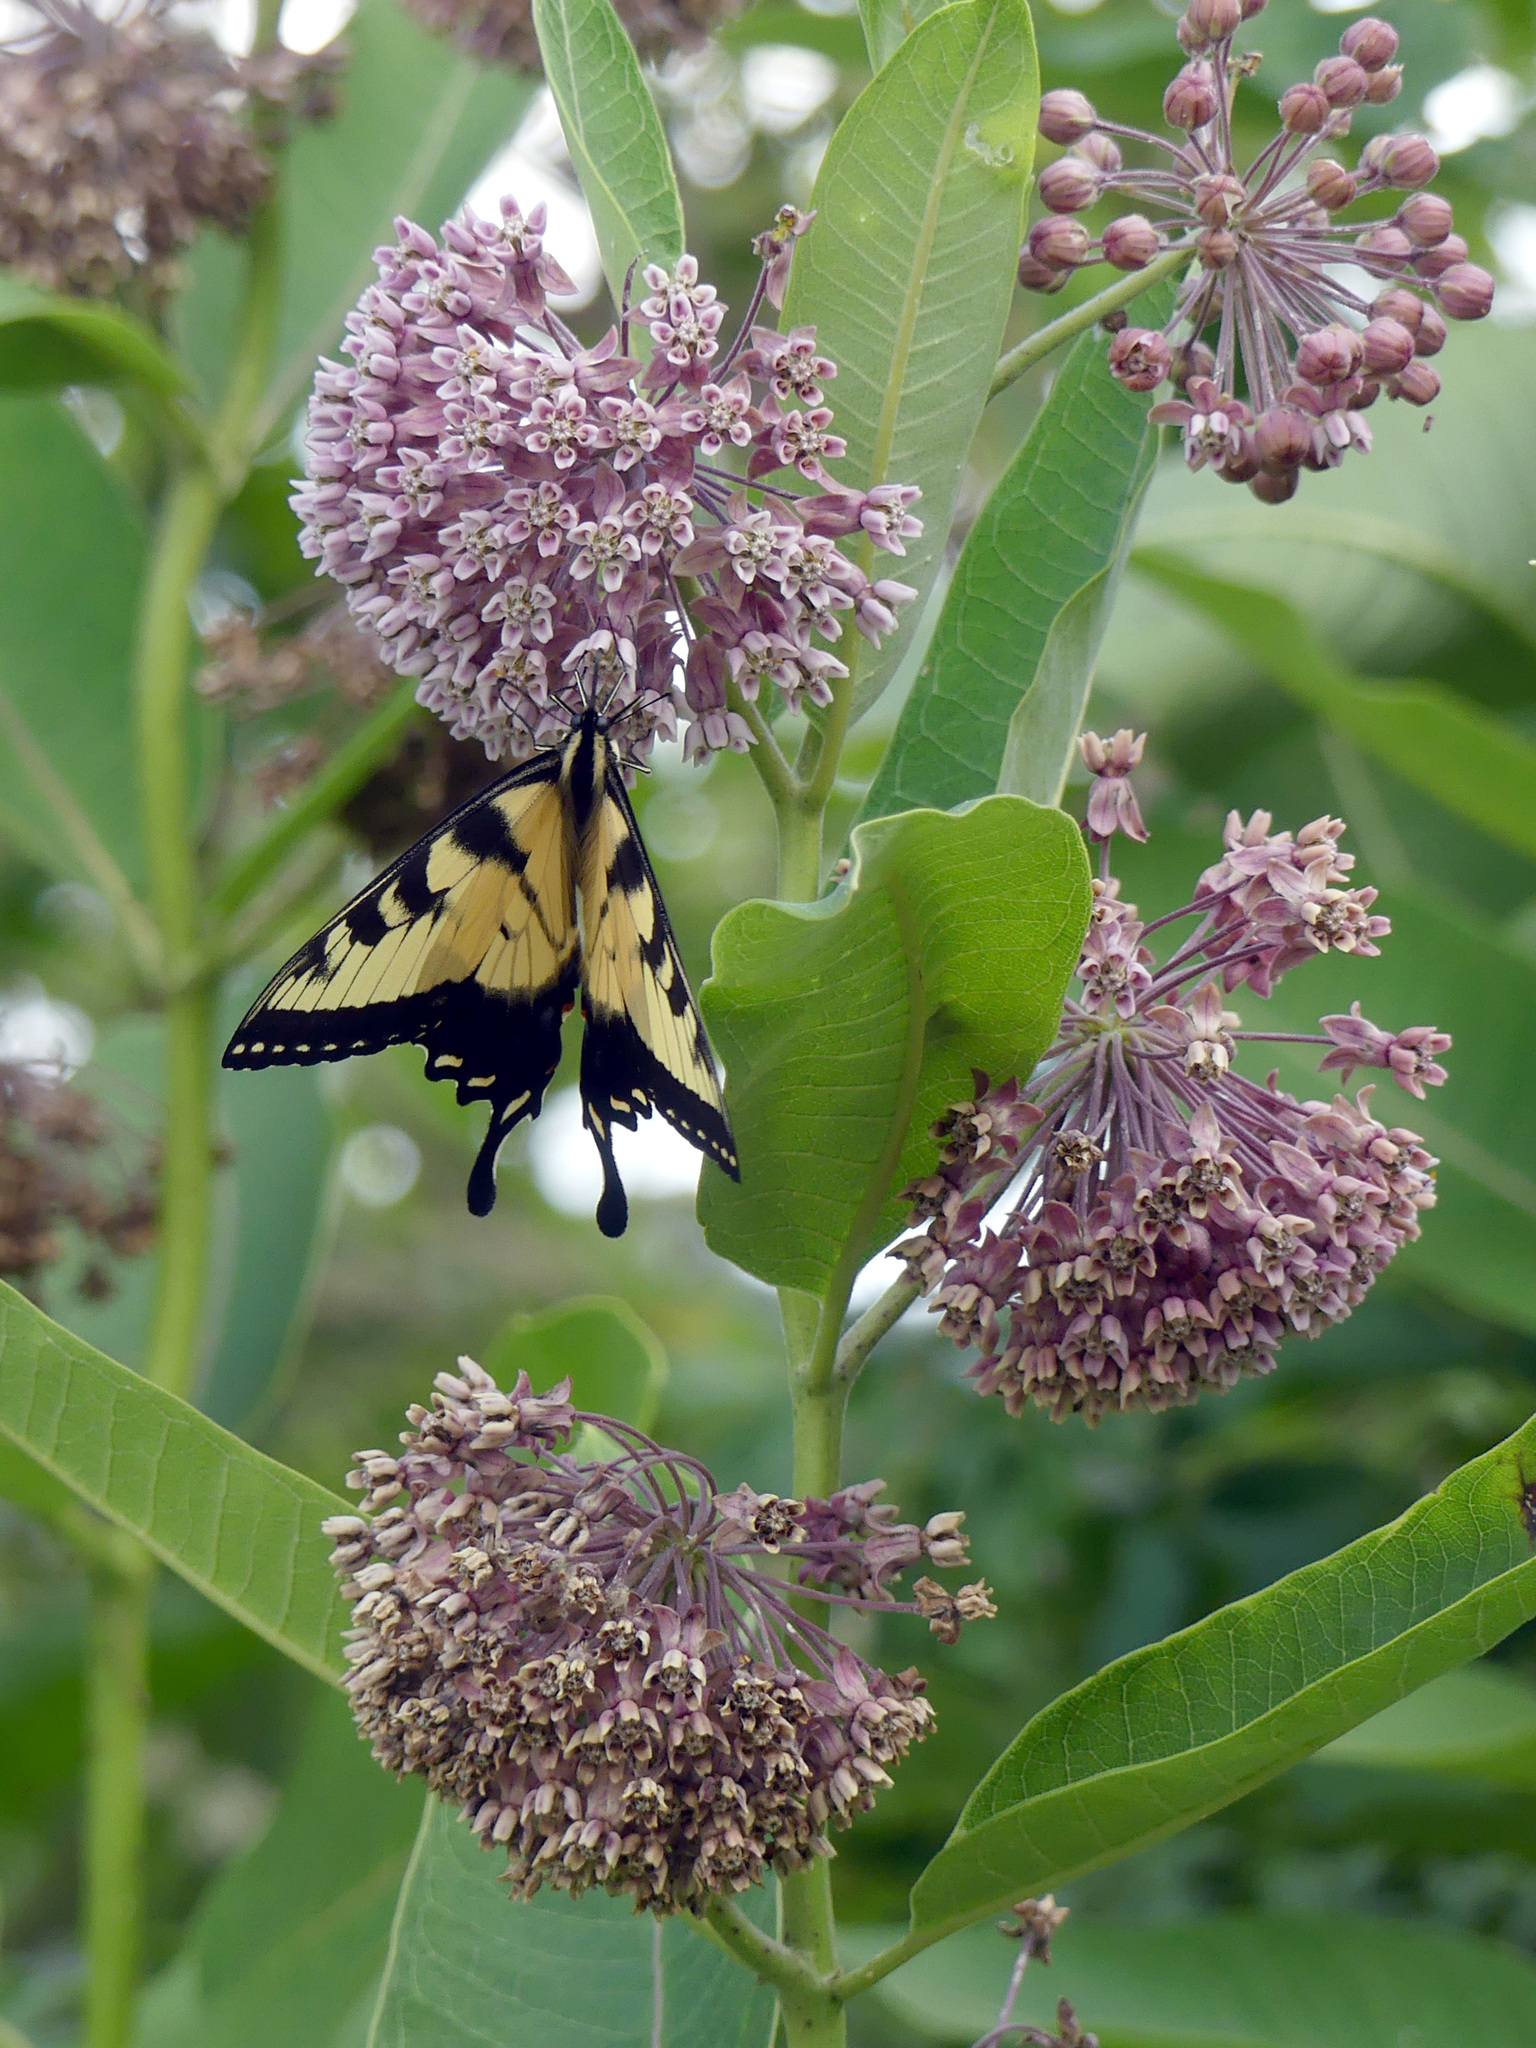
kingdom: Animalia
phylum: Arthropoda
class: Insecta
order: Lepidoptera
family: Papilionidae
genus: Papilio
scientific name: Papilio glaucus
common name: Tiger swallowtail
